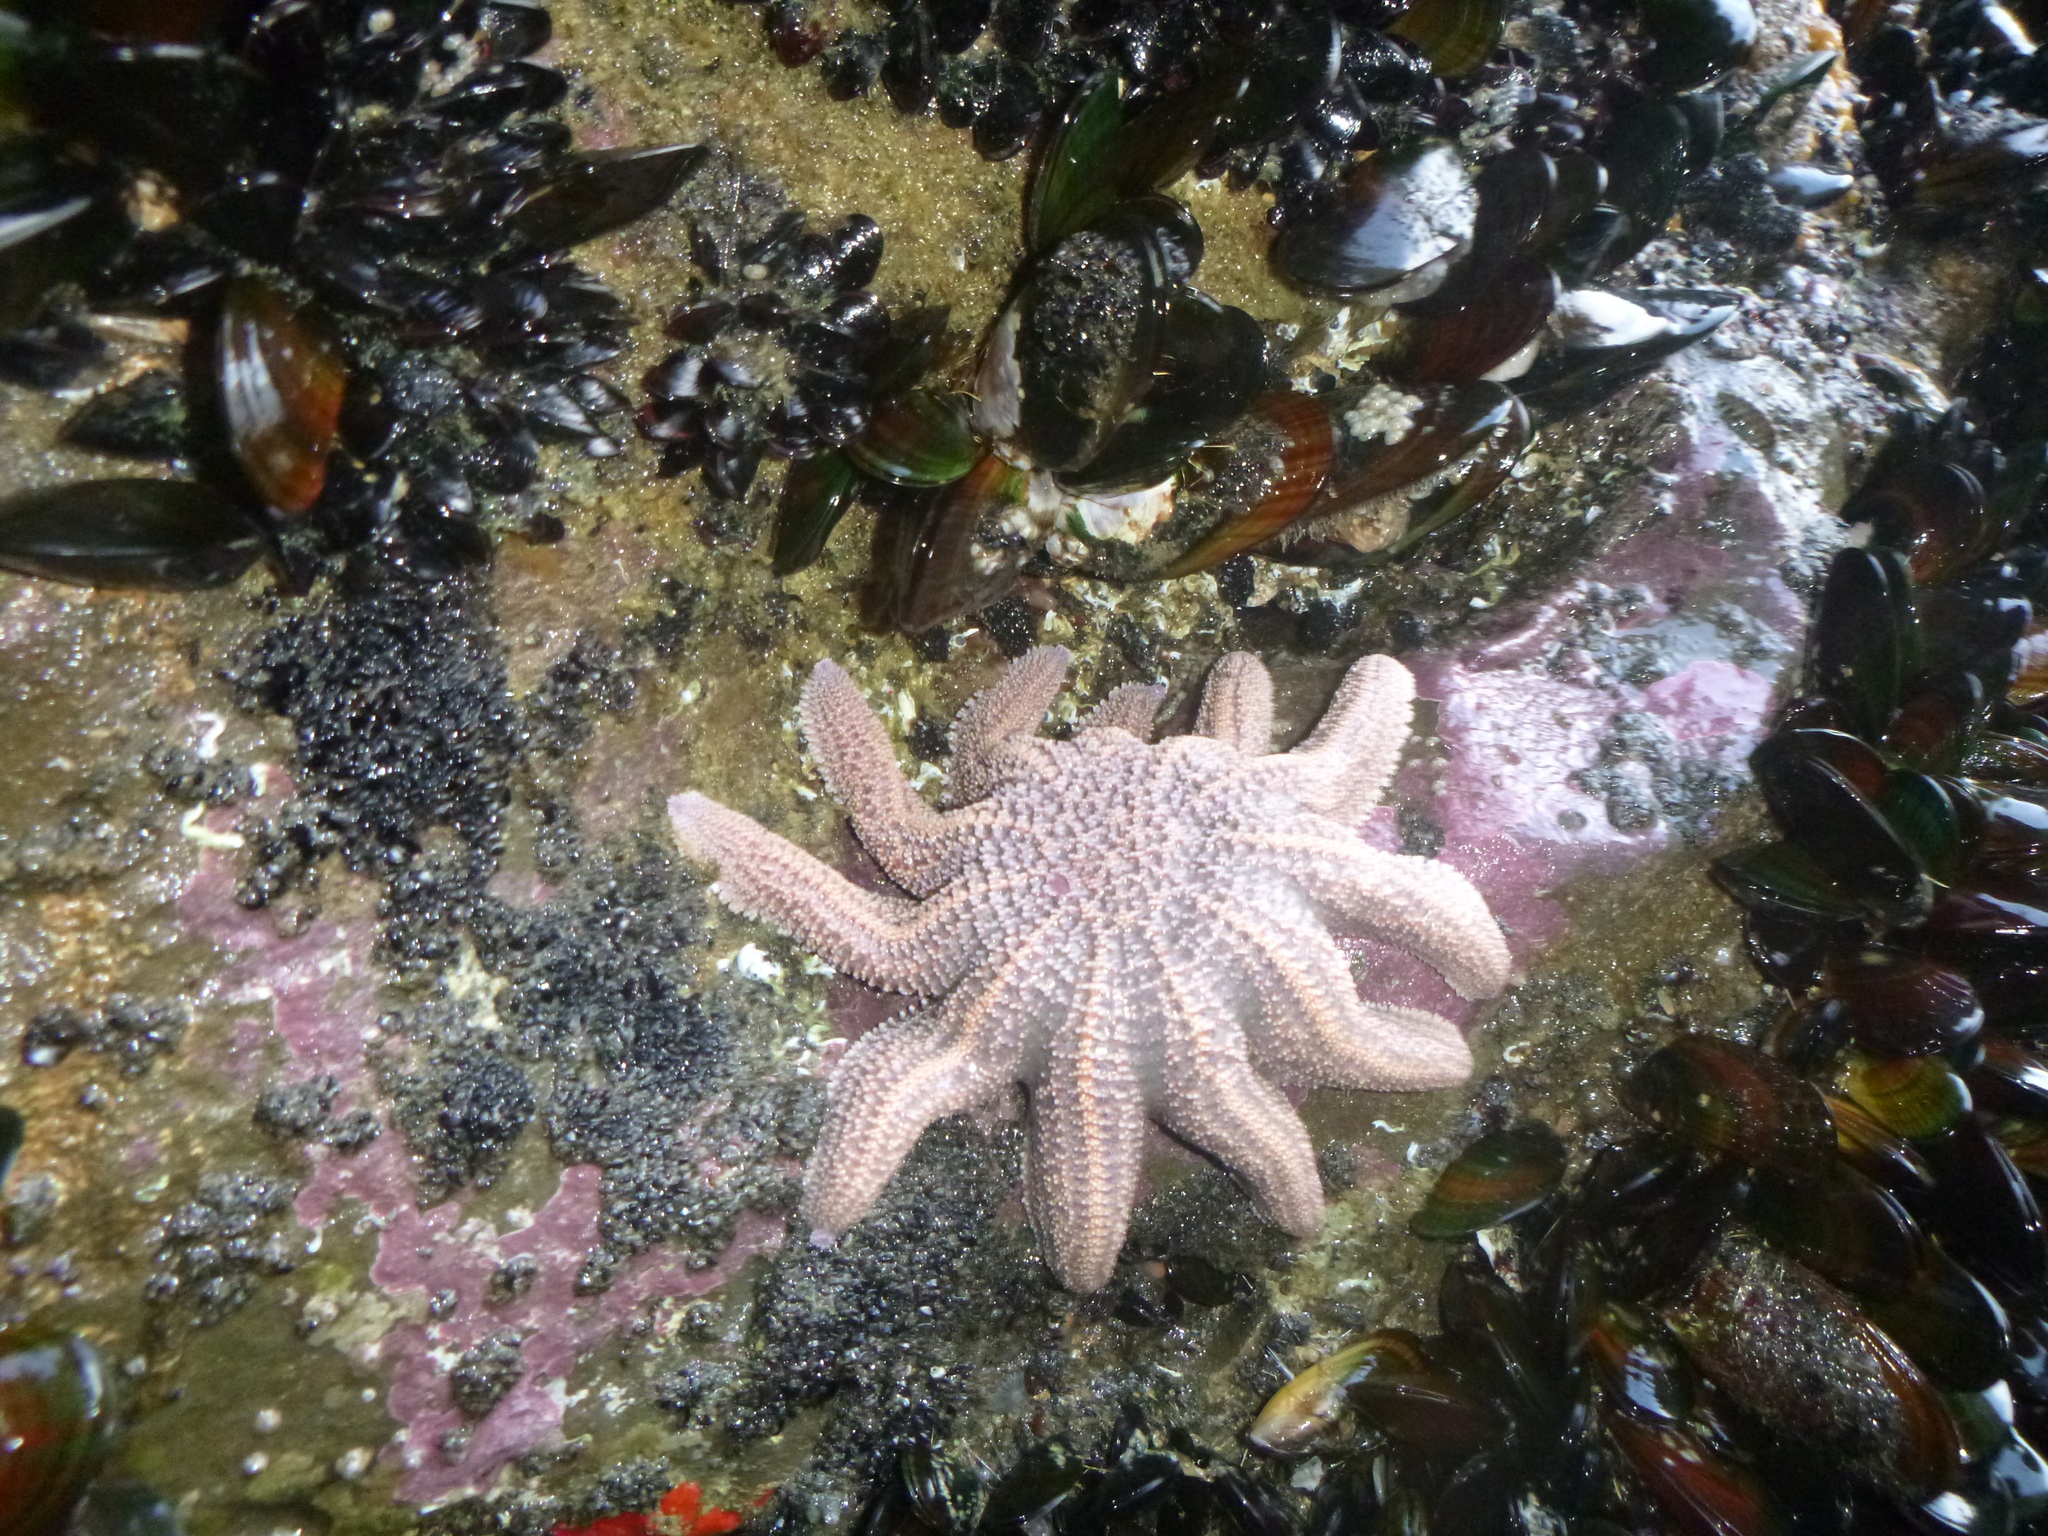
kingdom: Animalia
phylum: Echinodermata
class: Asteroidea
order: Forcipulatida
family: Stichasteridae
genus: Stichaster
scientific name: Stichaster australis
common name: Reef starfish
